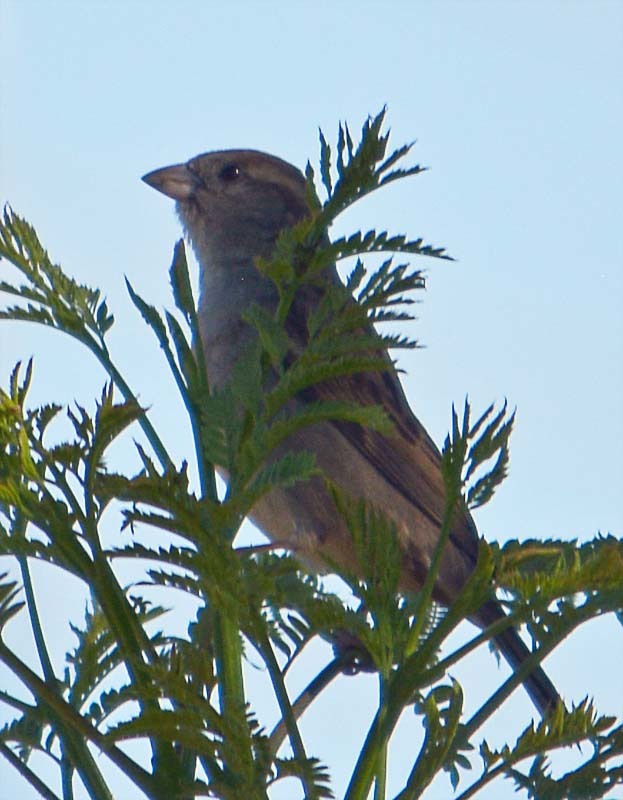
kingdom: Animalia
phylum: Chordata
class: Aves
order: Passeriformes
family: Passeridae
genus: Passer
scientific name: Passer domesticus
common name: House sparrow
